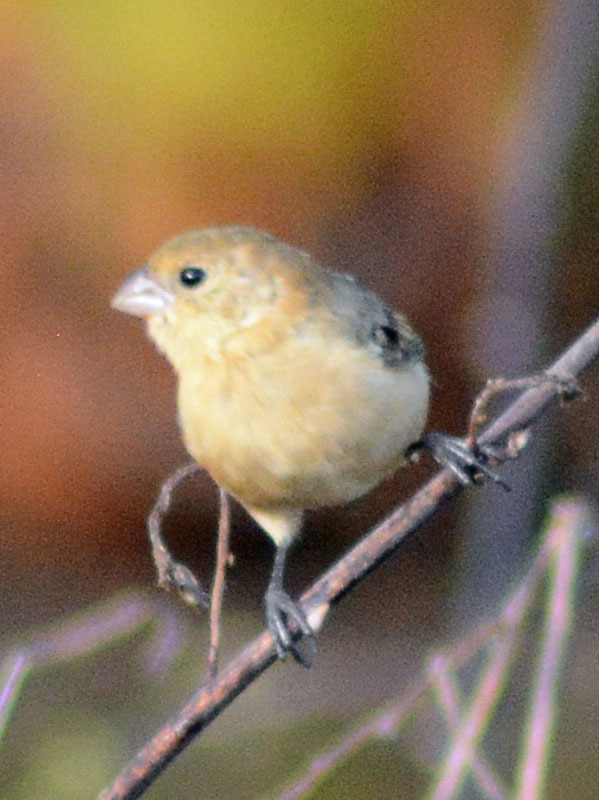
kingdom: Animalia
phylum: Chordata
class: Aves
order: Passeriformes
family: Thraupidae
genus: Sporophila
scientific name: Sporophila morelleti
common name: Morelet's seedeater
